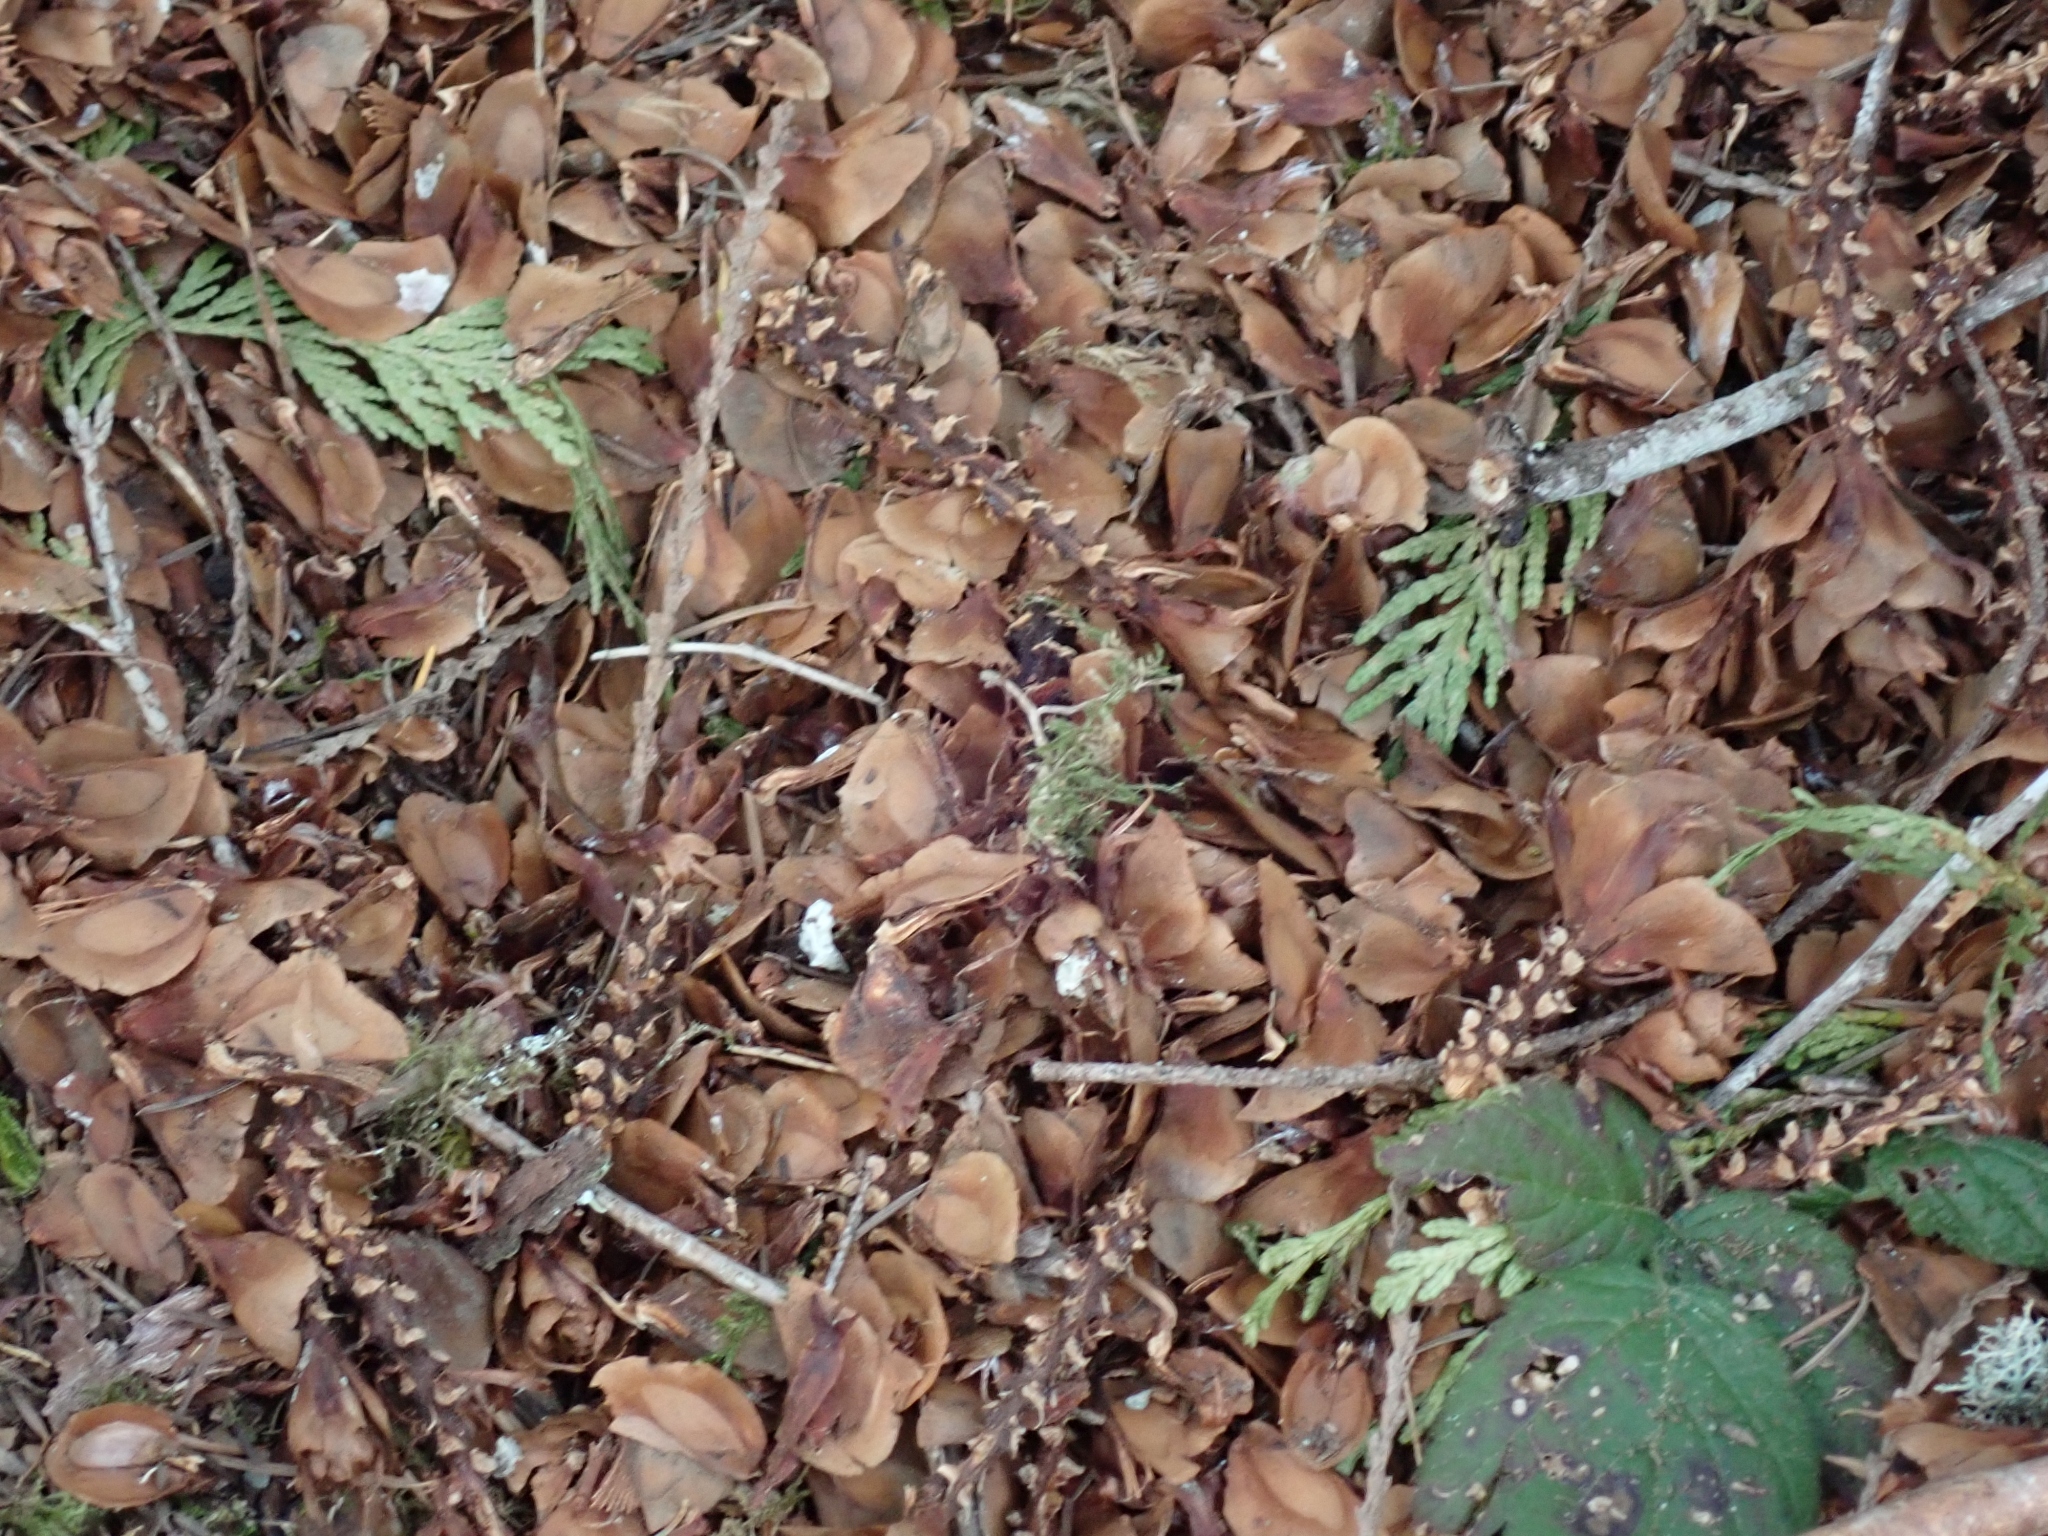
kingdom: Animalia
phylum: Chordata
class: Mammalia
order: Rodentia
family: Sciuridae
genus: Tamiasciurus
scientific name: Tamiasciurus hudsonicus
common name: Red squirrel
